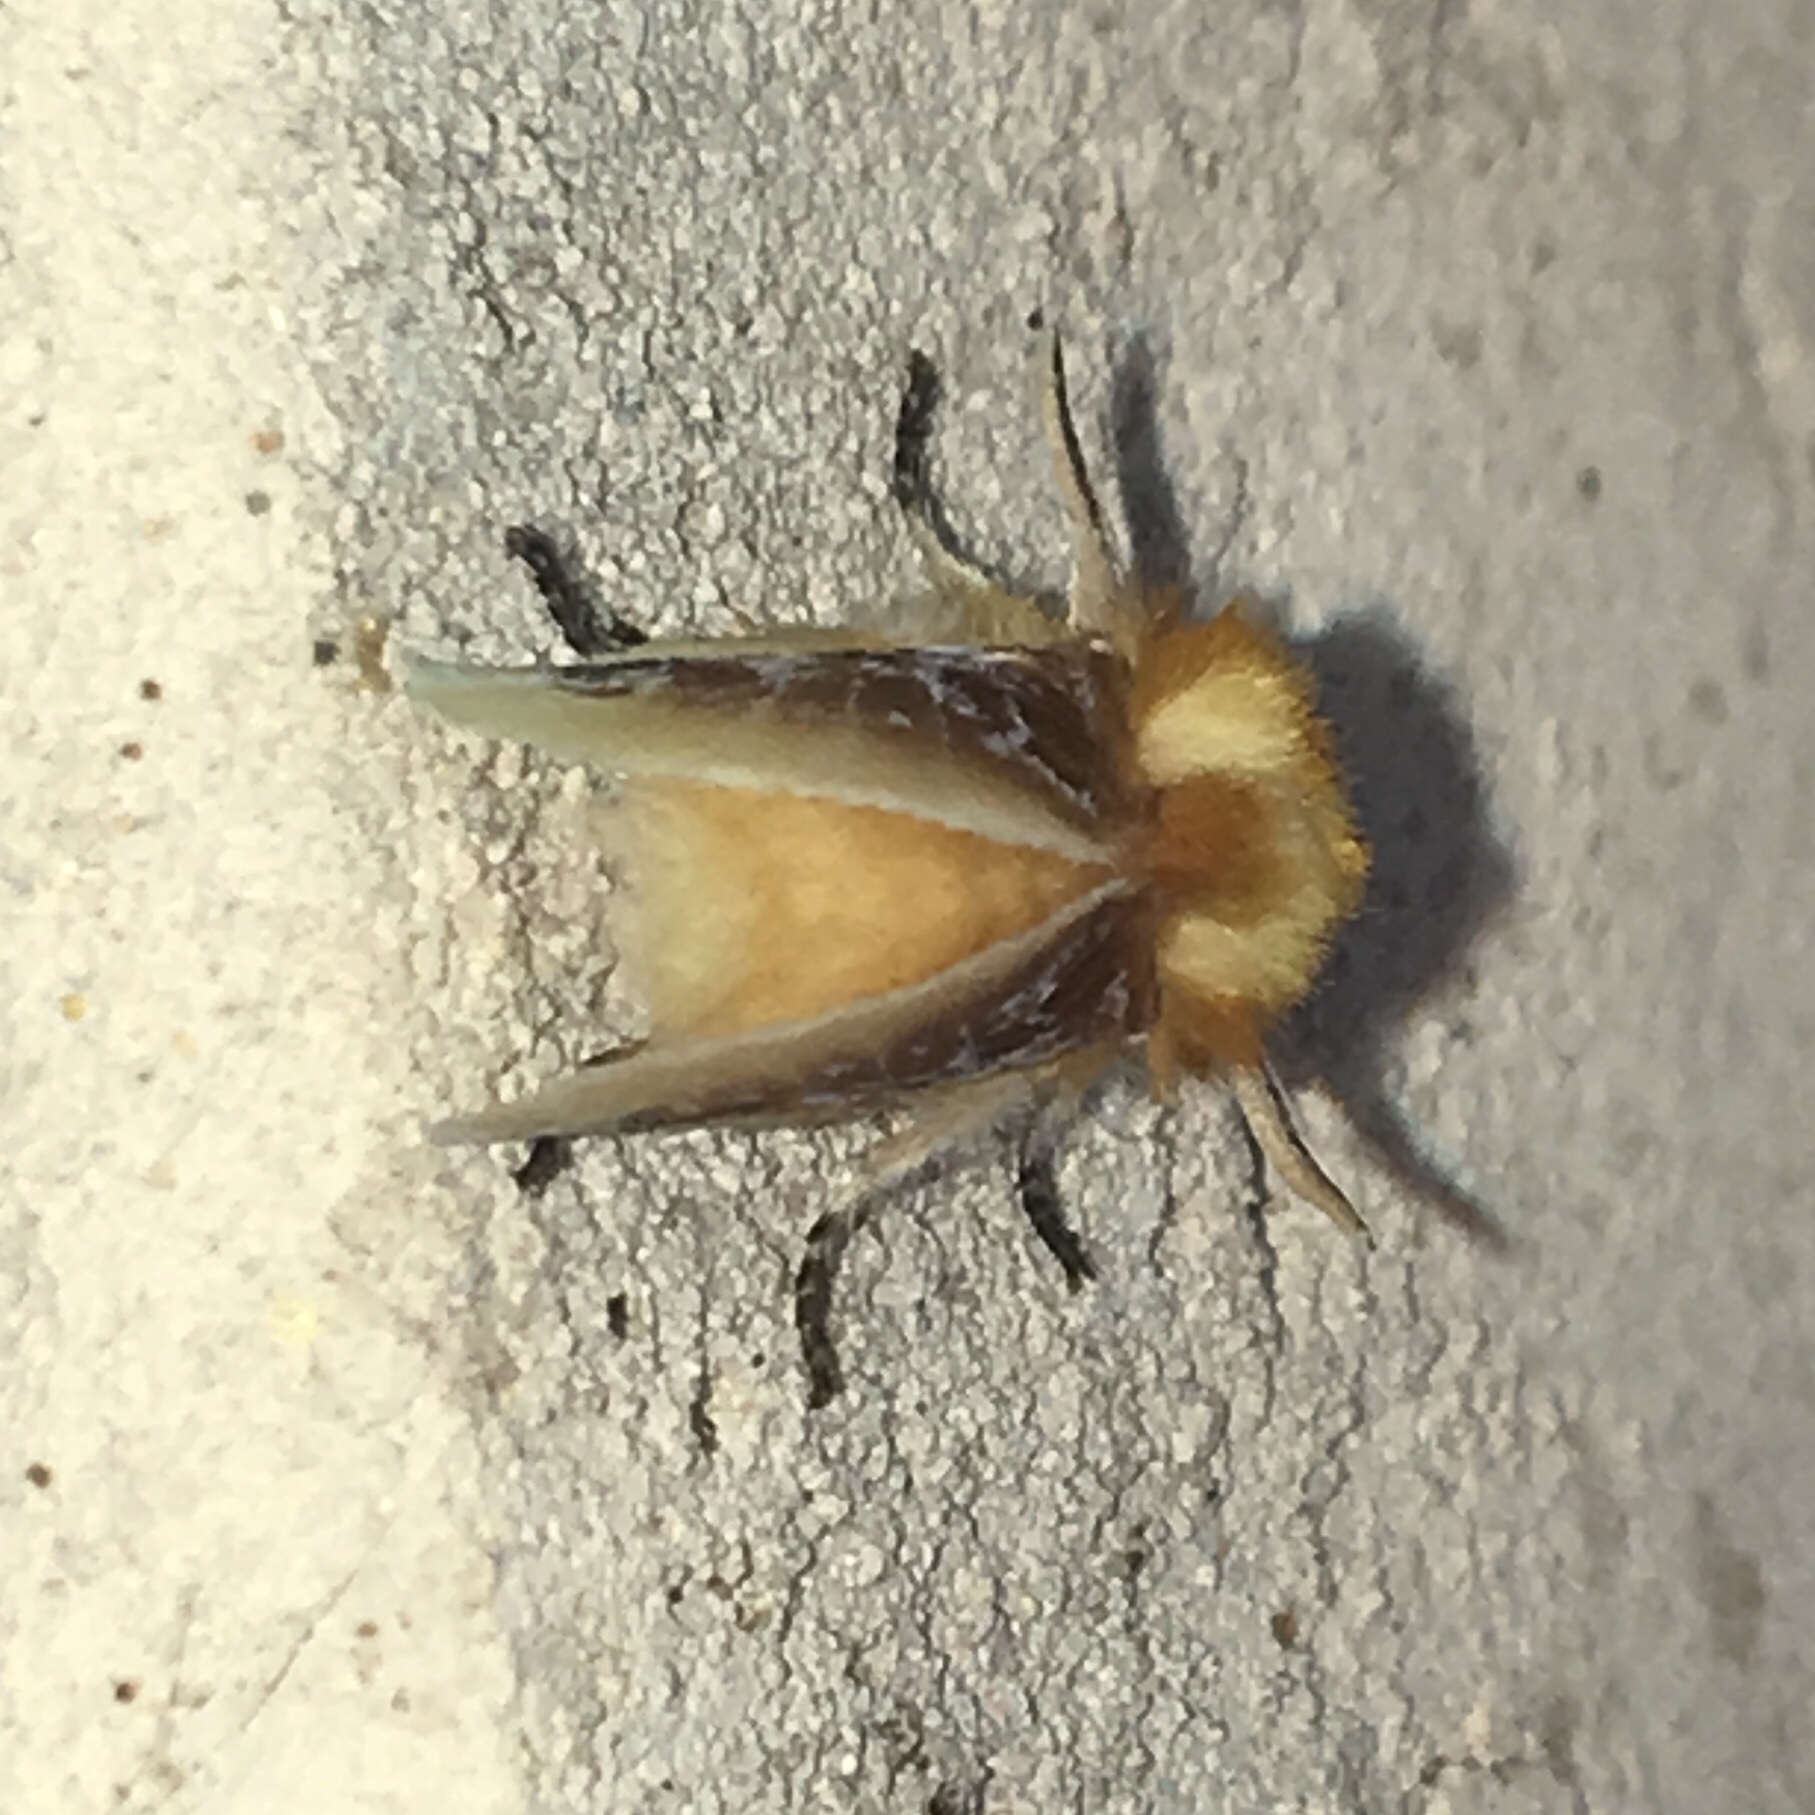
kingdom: Animalia
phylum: Arthropoda
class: Insecta
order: Lepidoptera
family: Megalopygidae
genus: Megalopyge
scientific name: Megalopyge opercularis
